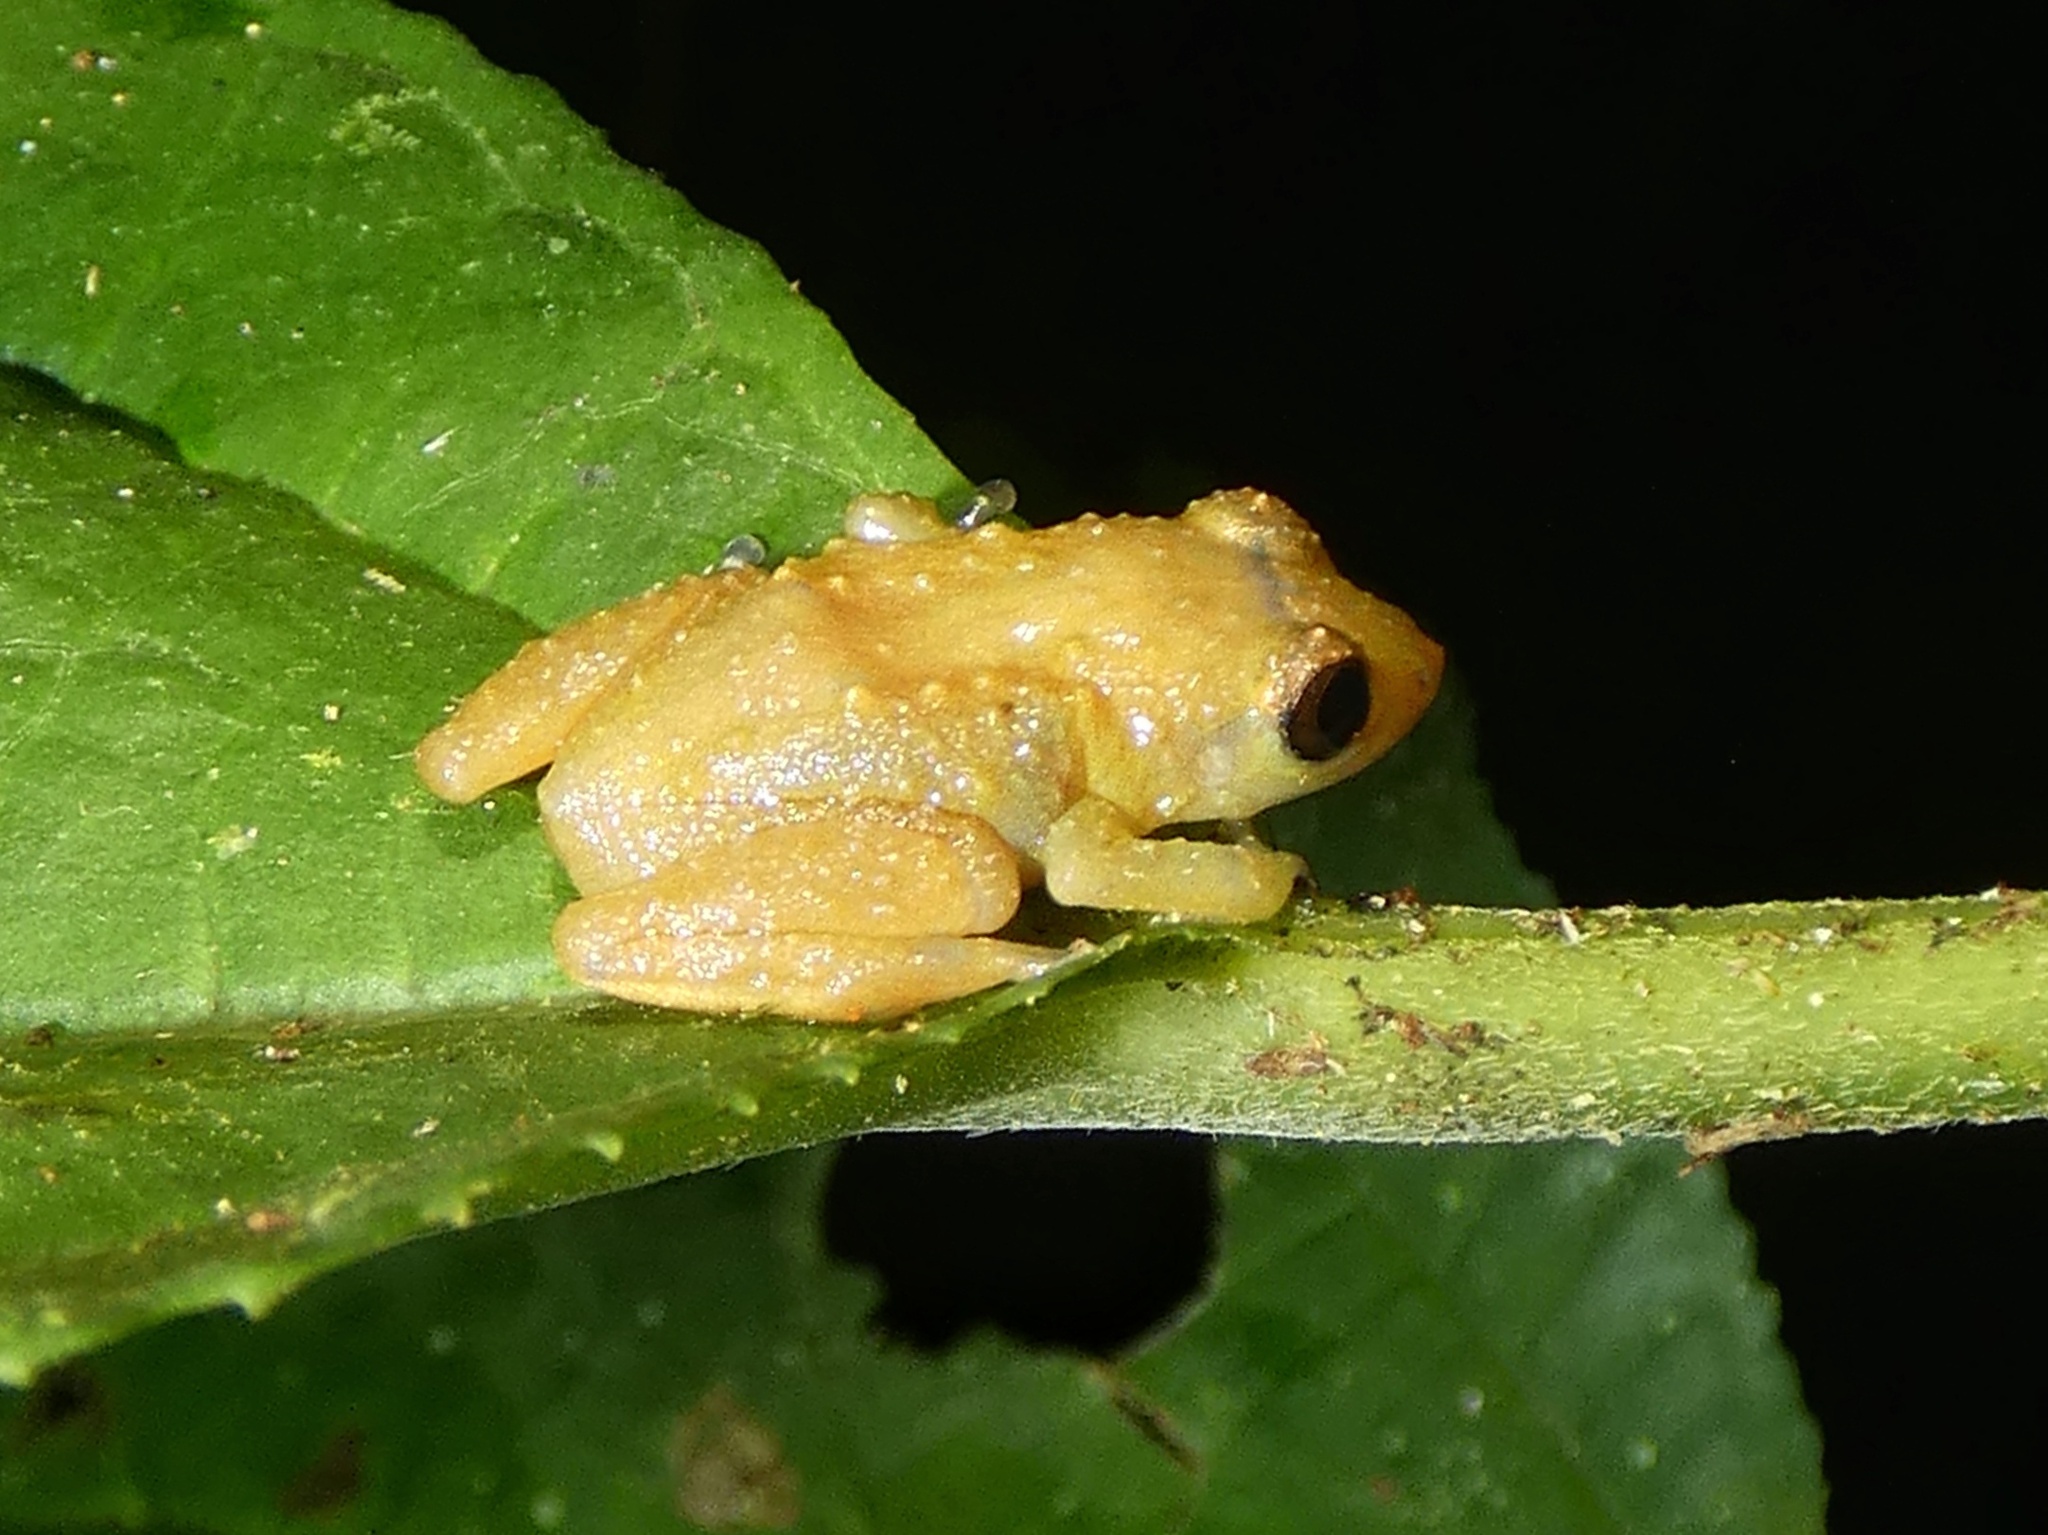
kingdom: Animalia
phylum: Chordata
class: Amphibia
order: Anura
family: Eleutherodactylidae
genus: Diasporus
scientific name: Diasporus diastema
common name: Caretta robber frog
